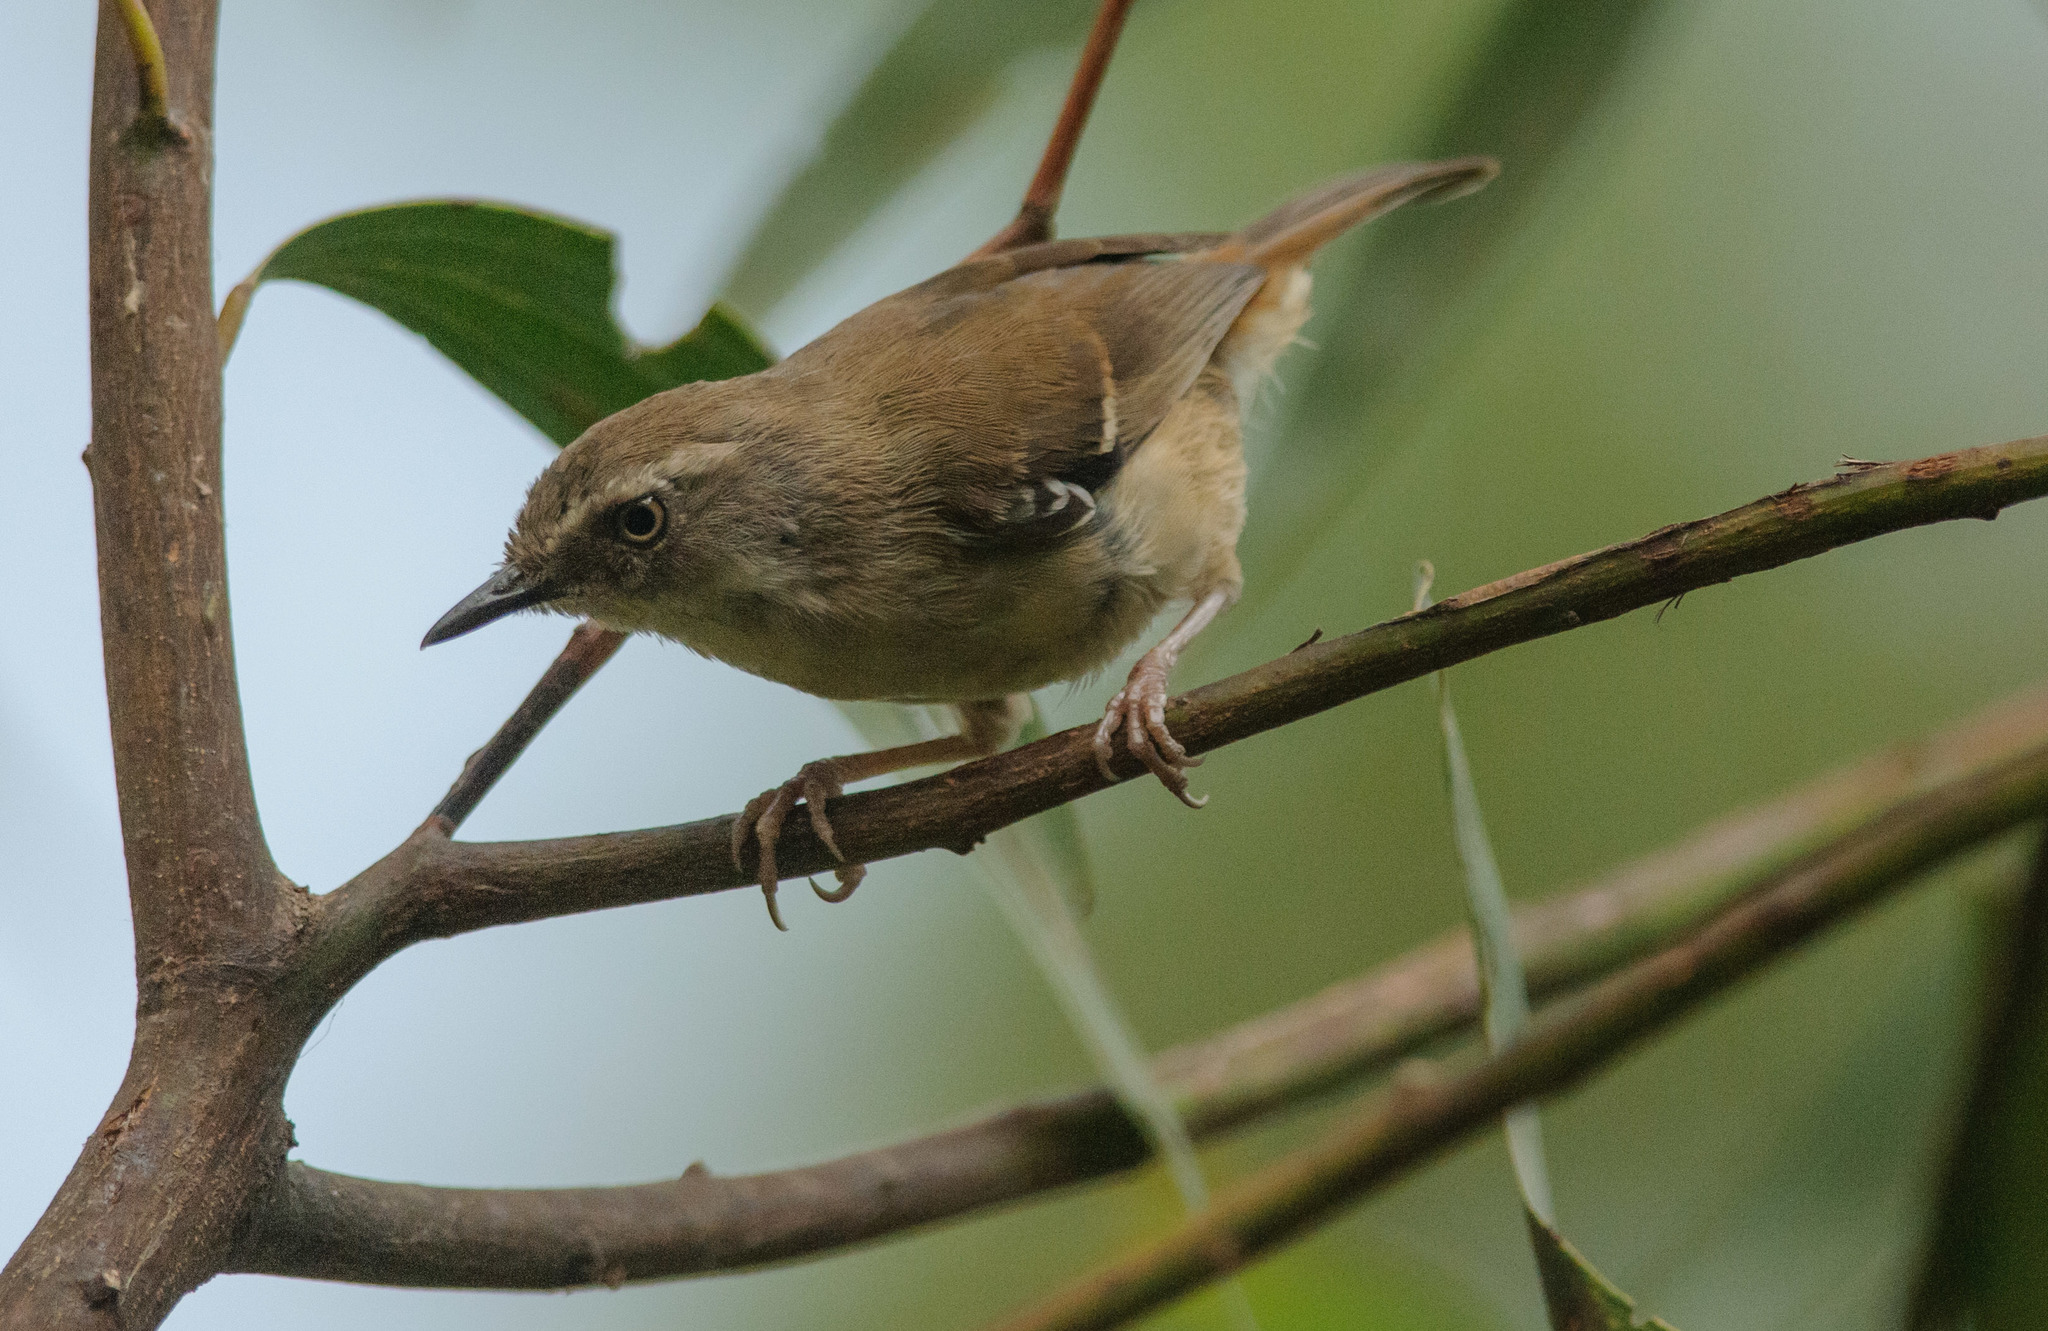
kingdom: Animalia
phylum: Chordata
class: Aves
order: Passeriformes
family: Acanthizidae
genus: Sericornis
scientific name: Sericornis frontalis
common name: White-browed scrubwren
